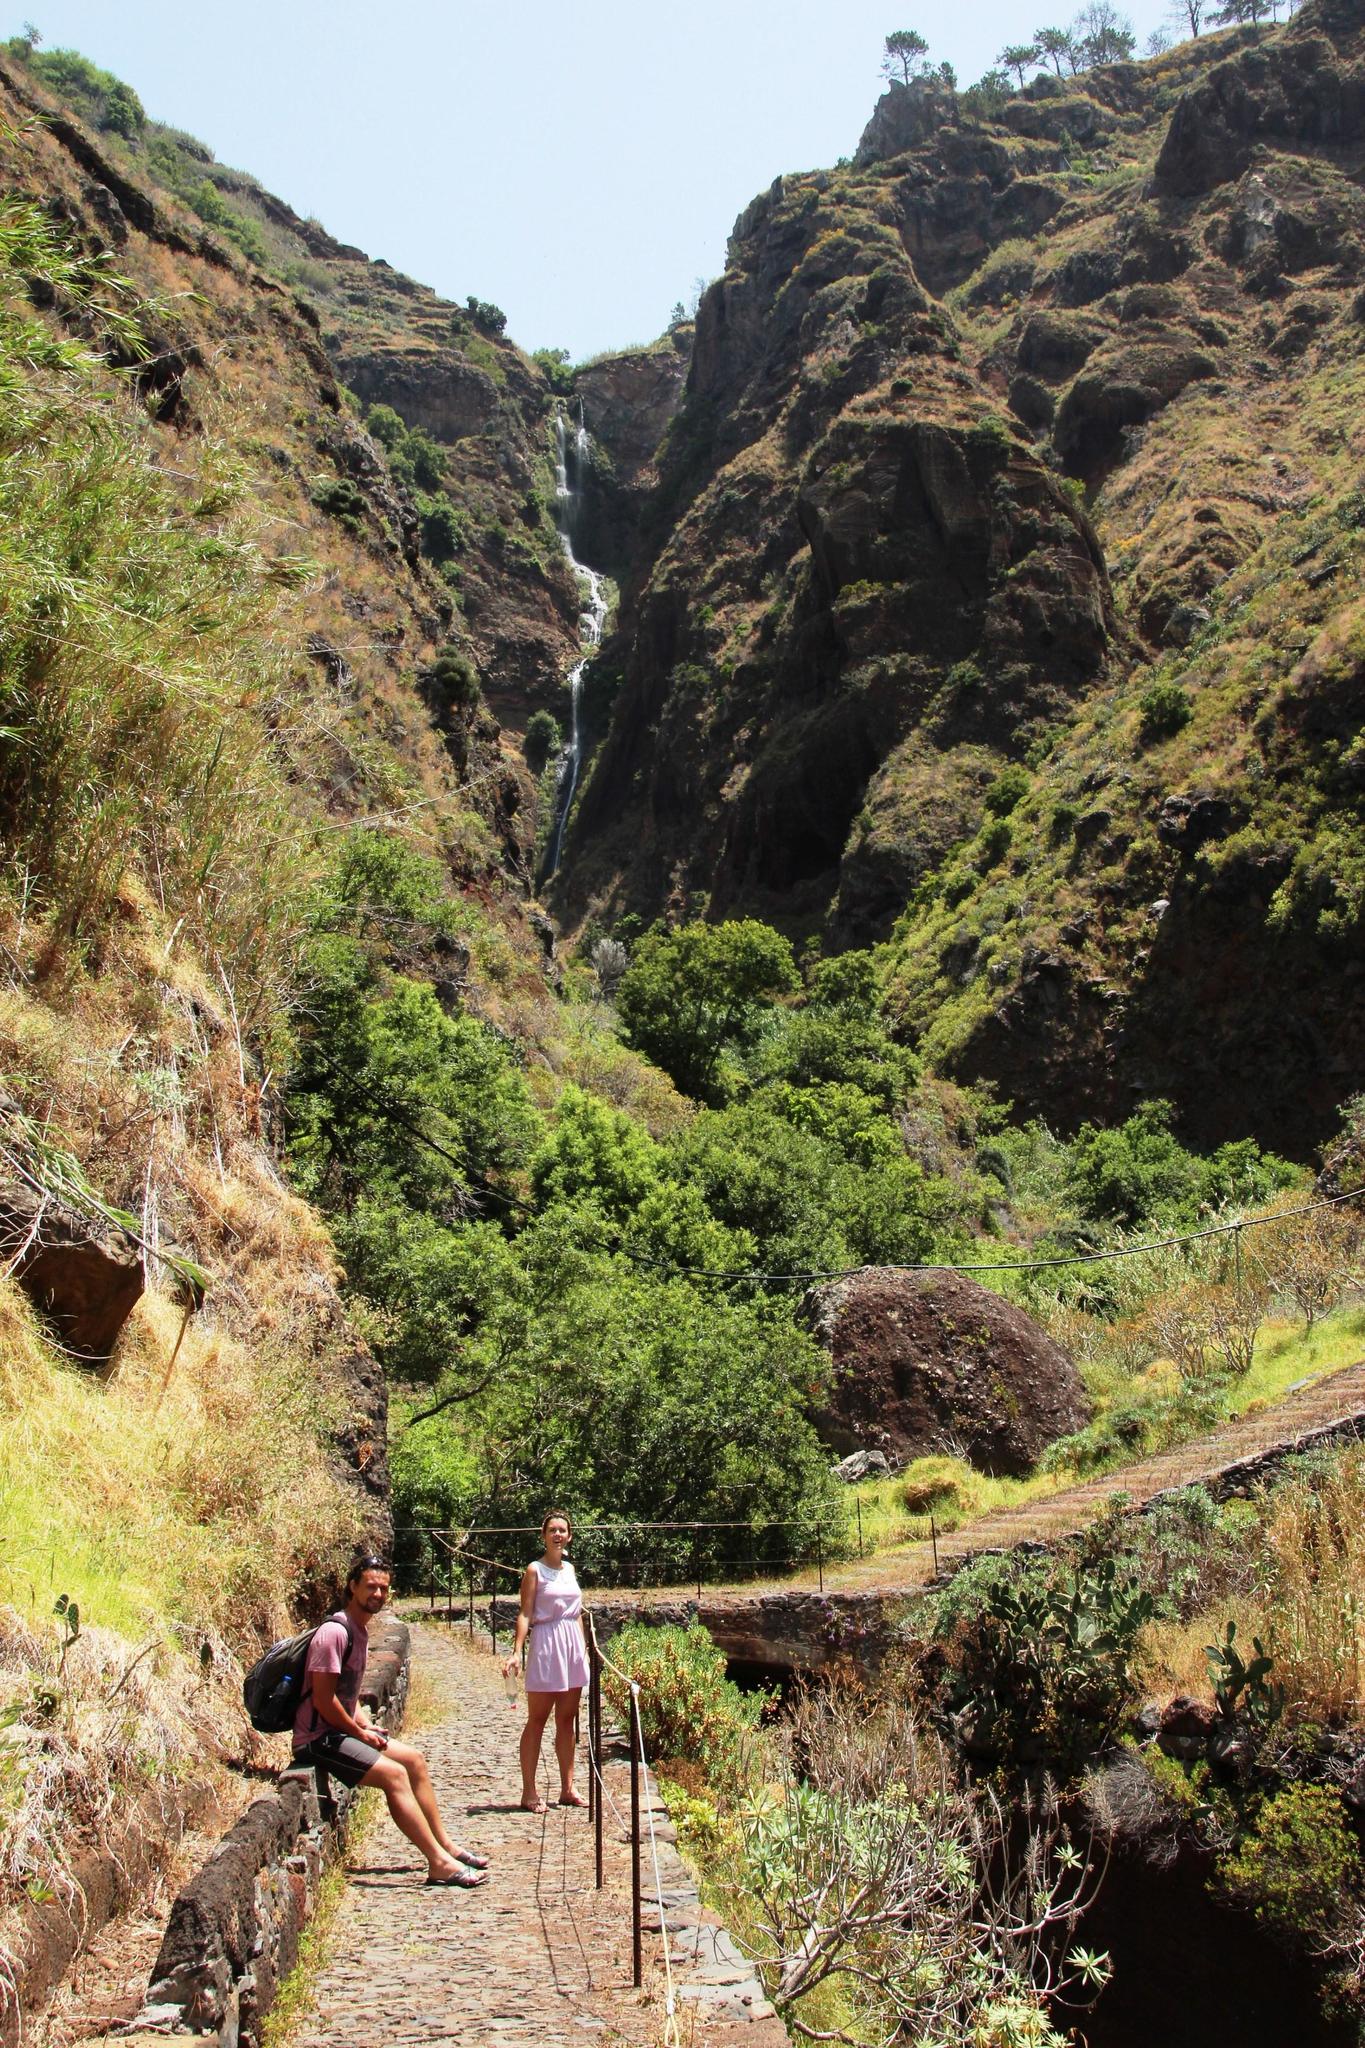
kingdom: Plantae
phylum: Tracheophyta
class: Magnoliopsida
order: Malpighiales
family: Salicaceae
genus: Salix
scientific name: Salix canariensis
